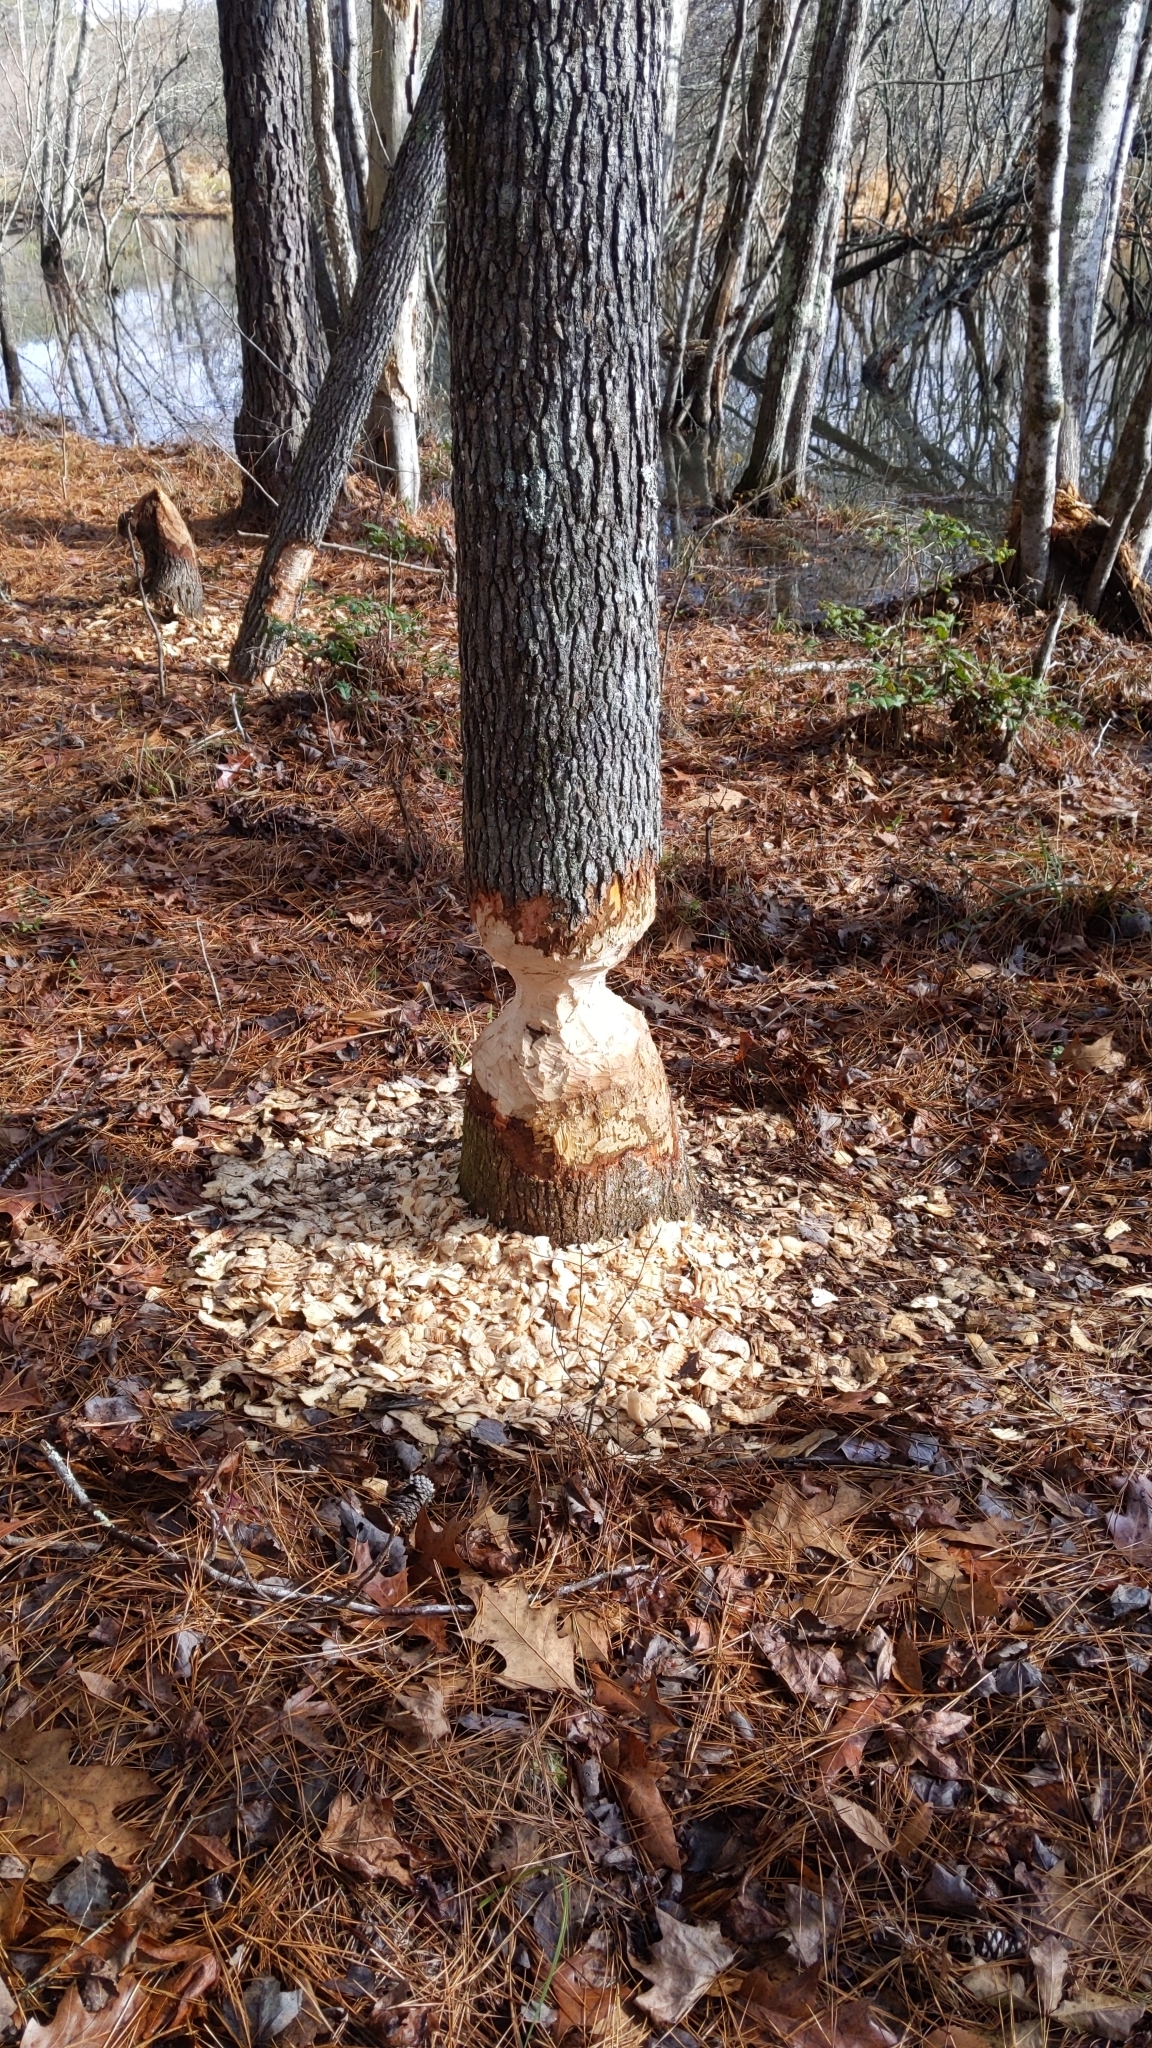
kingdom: Animalia
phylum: Chordata
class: Mammalia
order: Rodentia
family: Castoridae
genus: Castor
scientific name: Castor canadensis
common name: American beaver
